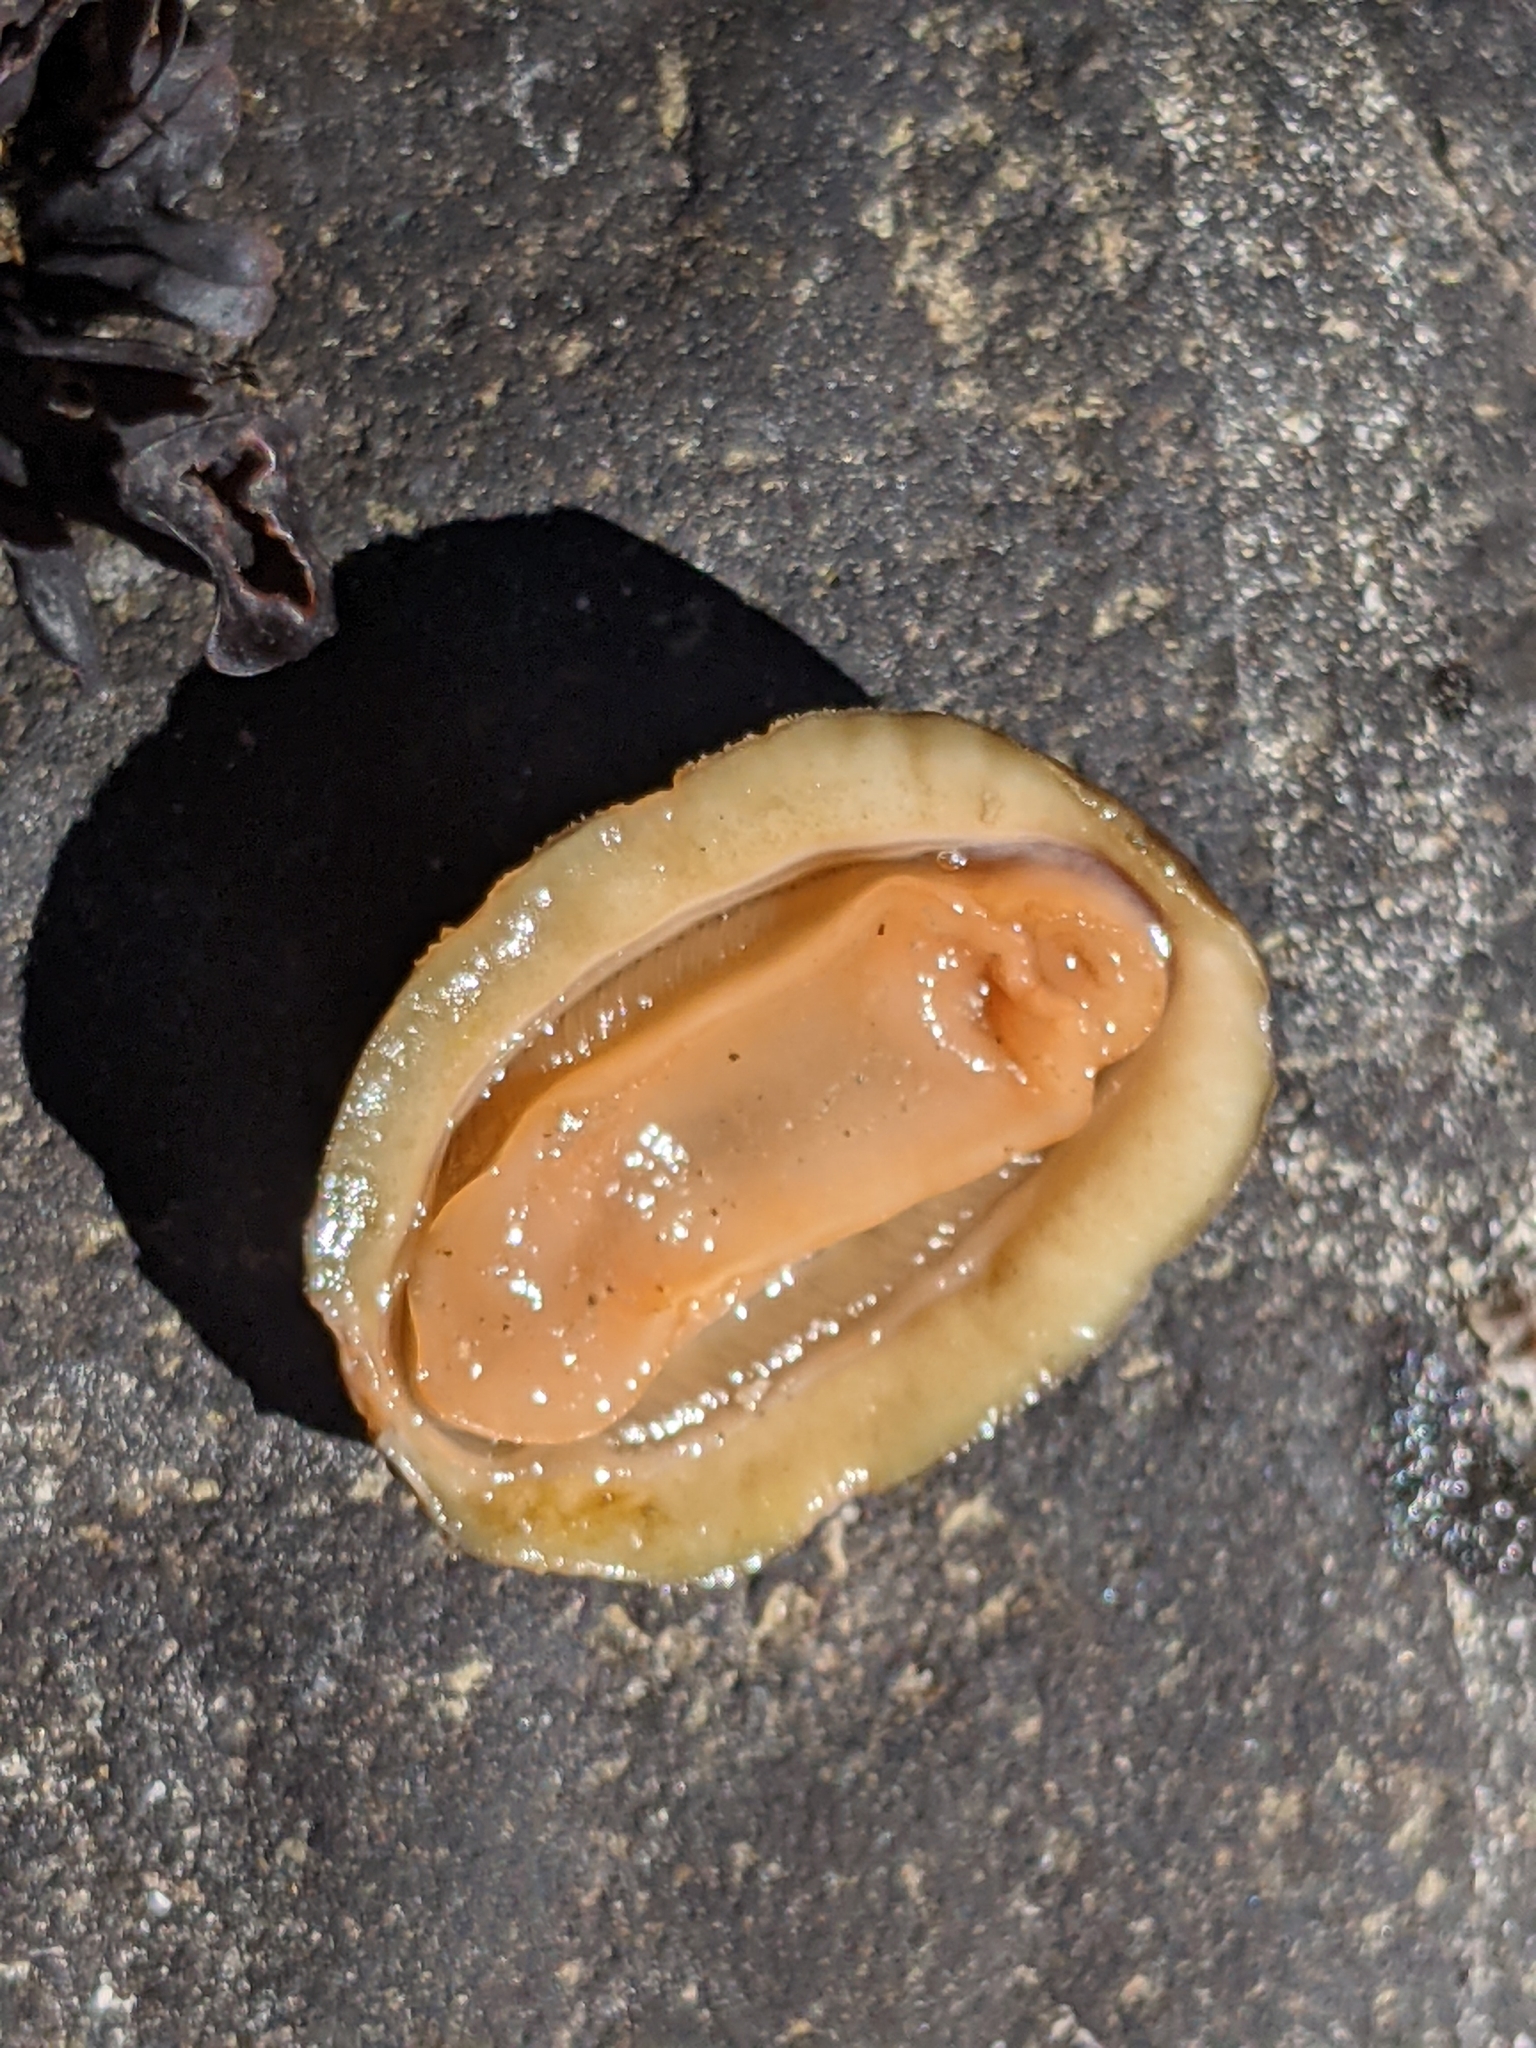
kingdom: Animalia
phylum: Mollusca
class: Polyplacophora
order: Chitonida
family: Tonicellidae
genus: Cyanoplax
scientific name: Cyanoplax hartwegii
